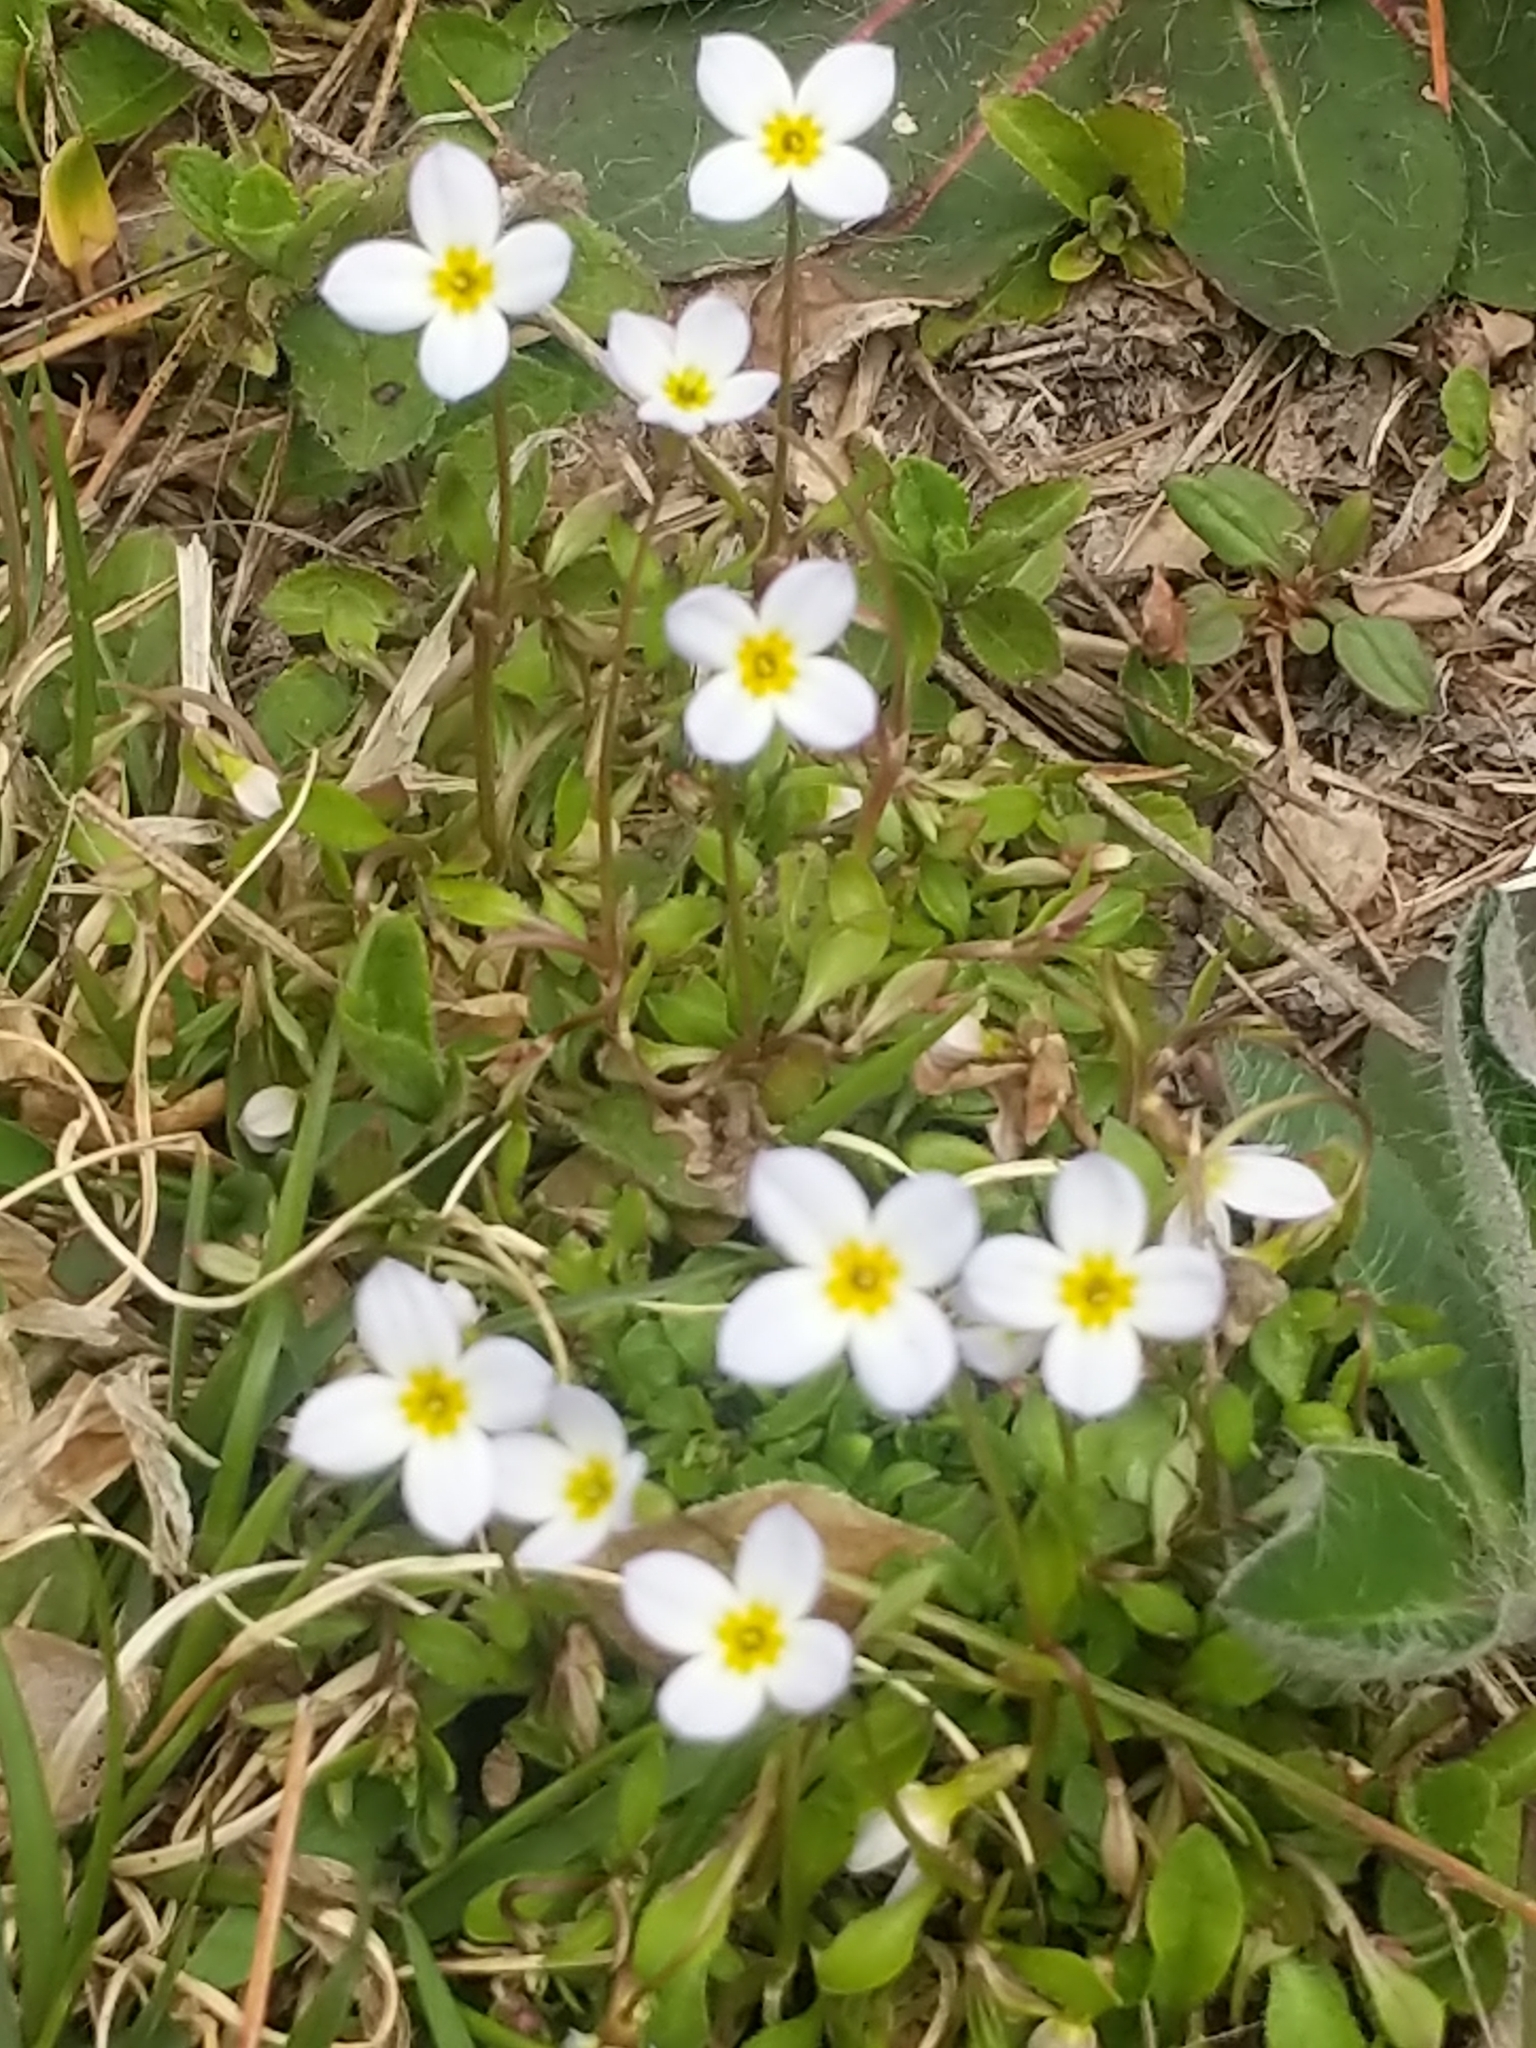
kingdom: Plantae
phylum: Tracheophyta
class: Magnoliopsida
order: Gentianales
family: Rubiaceae
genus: Houstonia
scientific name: Houstonia caerulea
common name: Bluets
